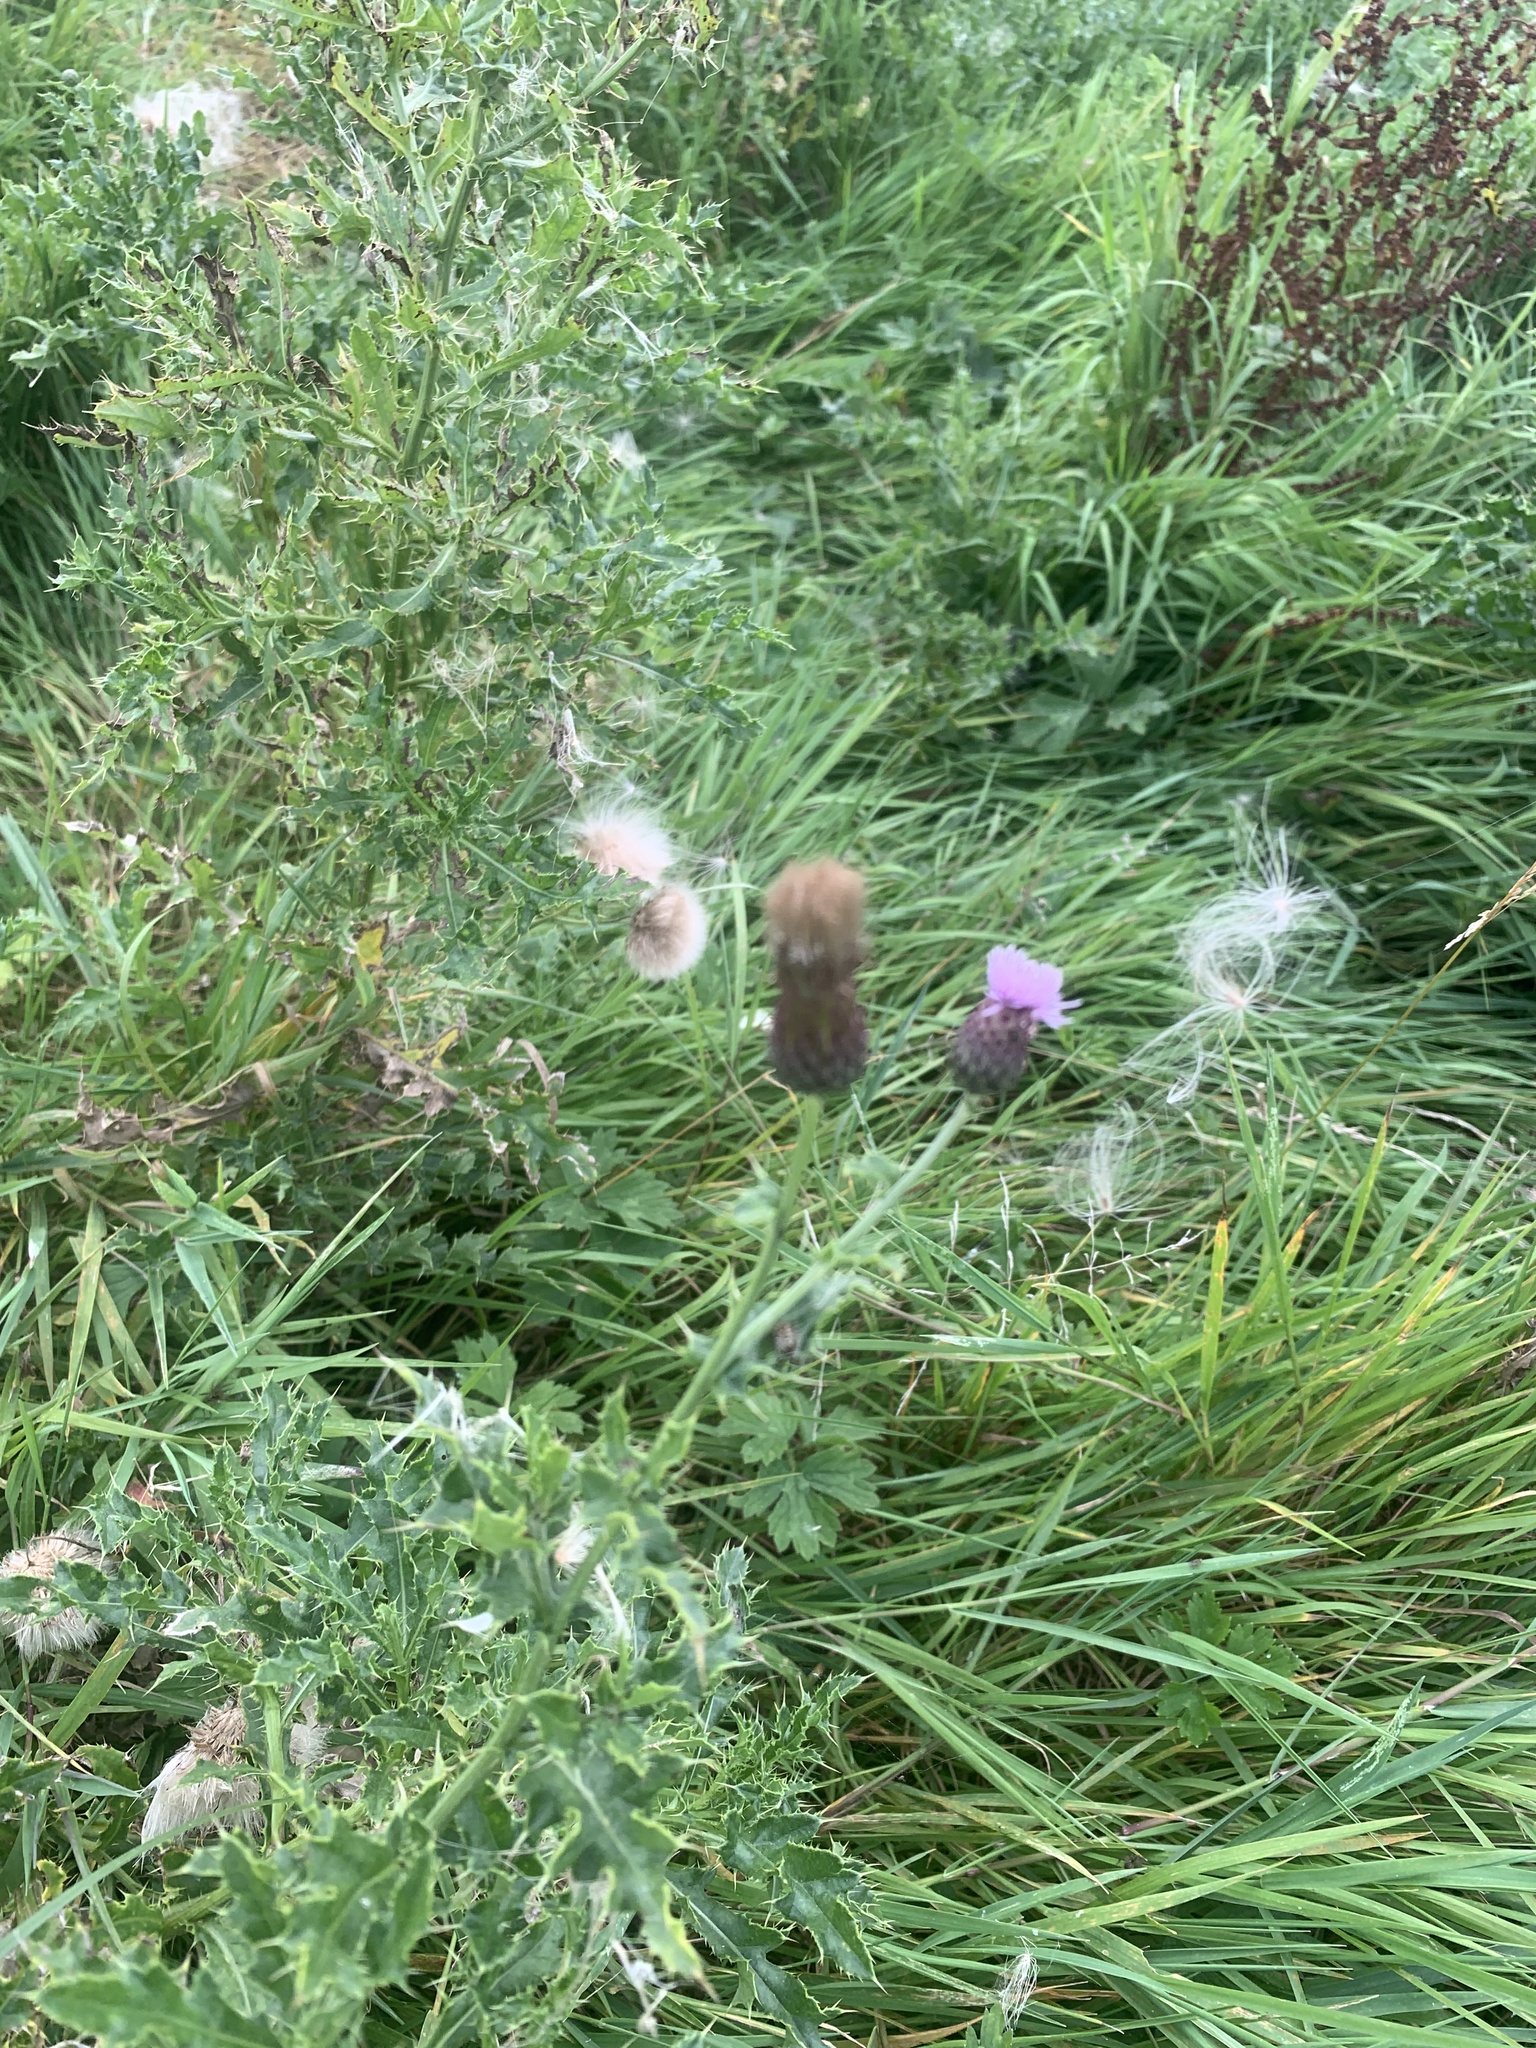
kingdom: Plantae
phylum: Tracheophyta
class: Magnoliopsida
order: Asterales
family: Asteraceae
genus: Cirsium
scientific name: Cirsium arvense
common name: Creeping thistle
